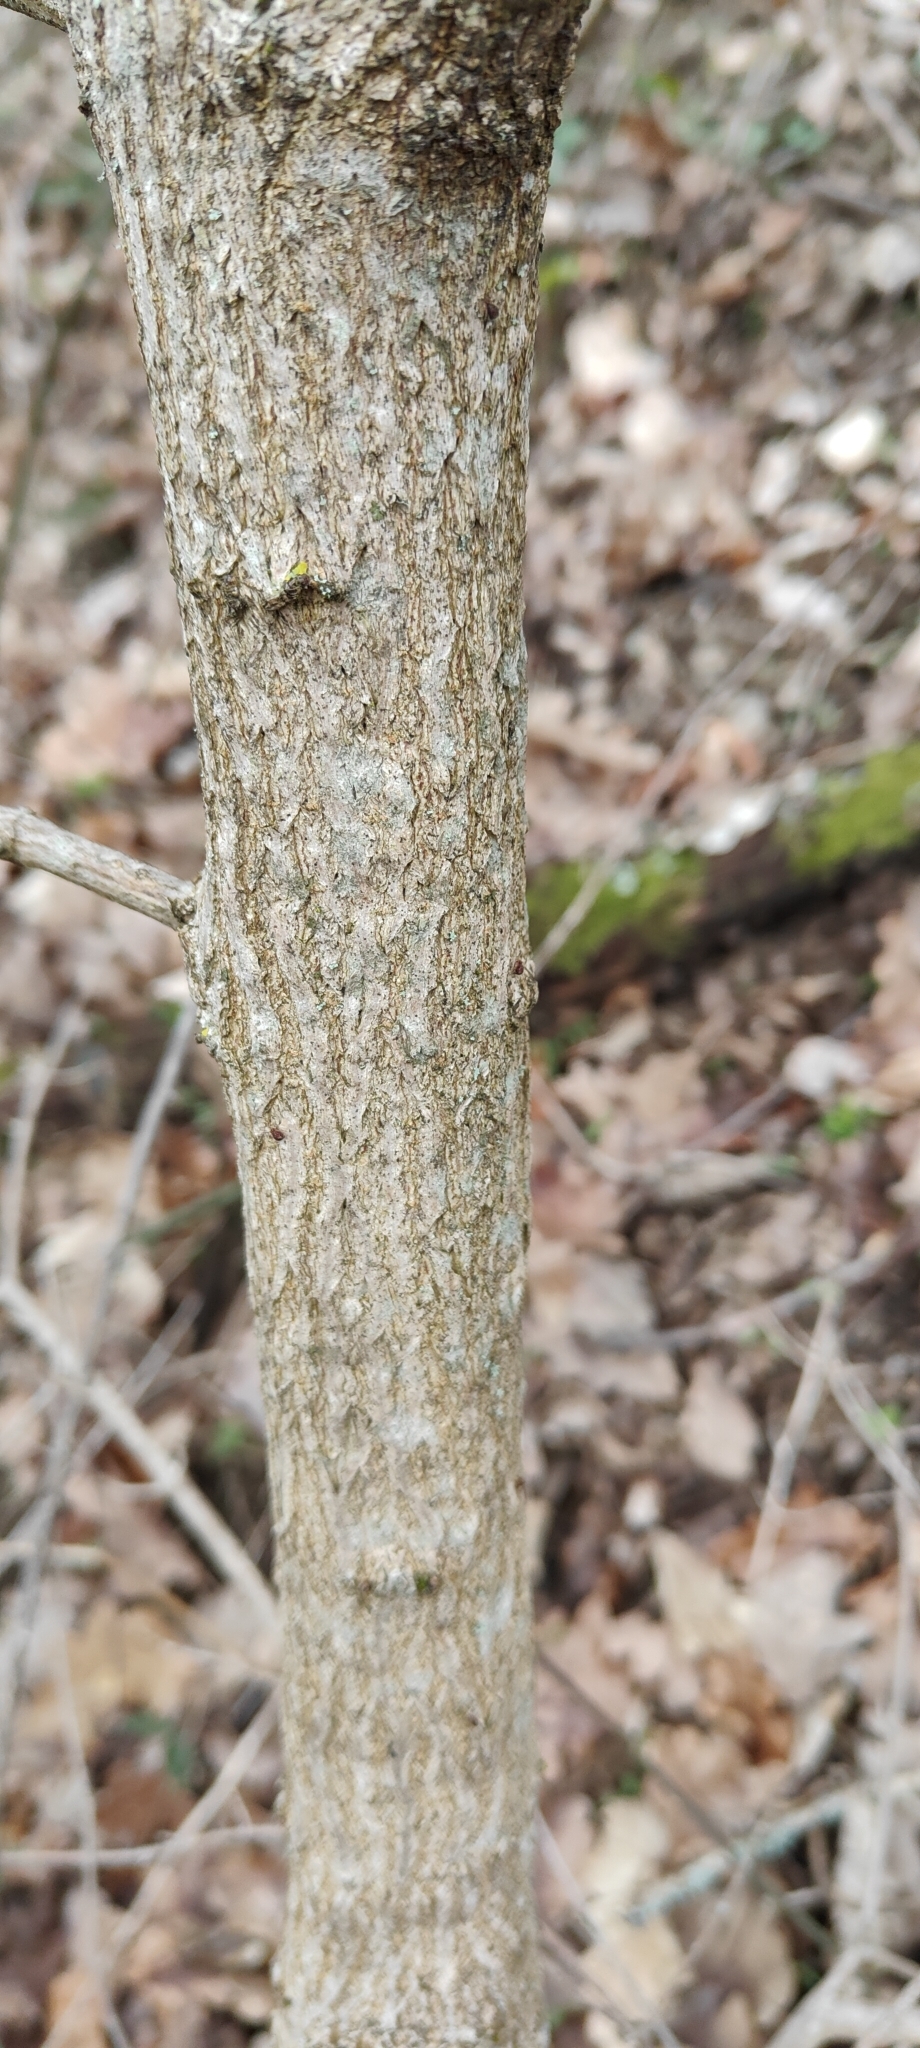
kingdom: Plantae
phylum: Tracheophyta
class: Magnoliopsida
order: Sapindales
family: Sapindaceae
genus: Acer
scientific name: Acer campestre
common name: Field maple
